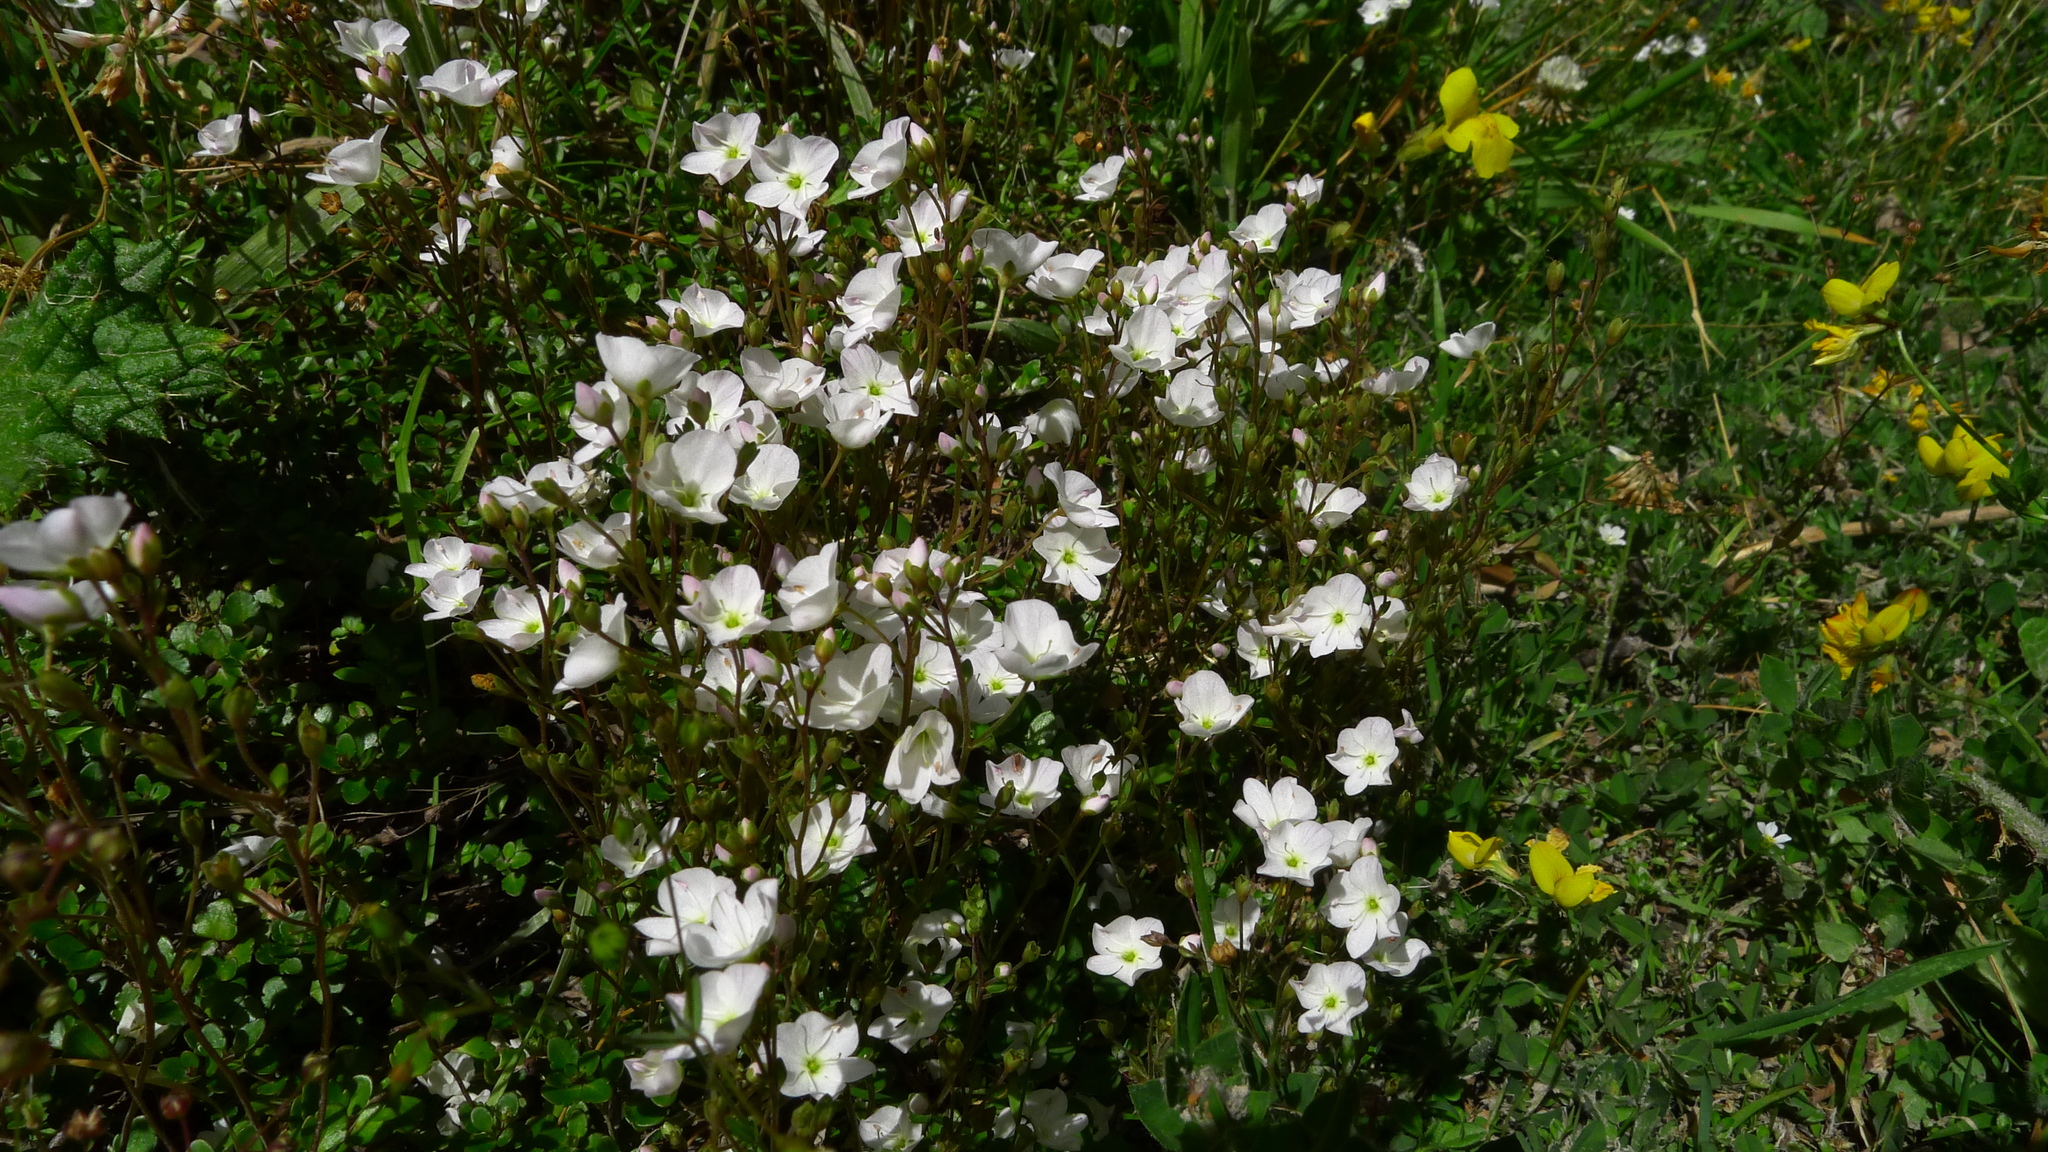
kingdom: Plantae
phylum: Tracheophyta
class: Magnoliopsida
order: Lamiales
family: Plantaginaceae
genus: Veronica
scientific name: Veronica lyallii
